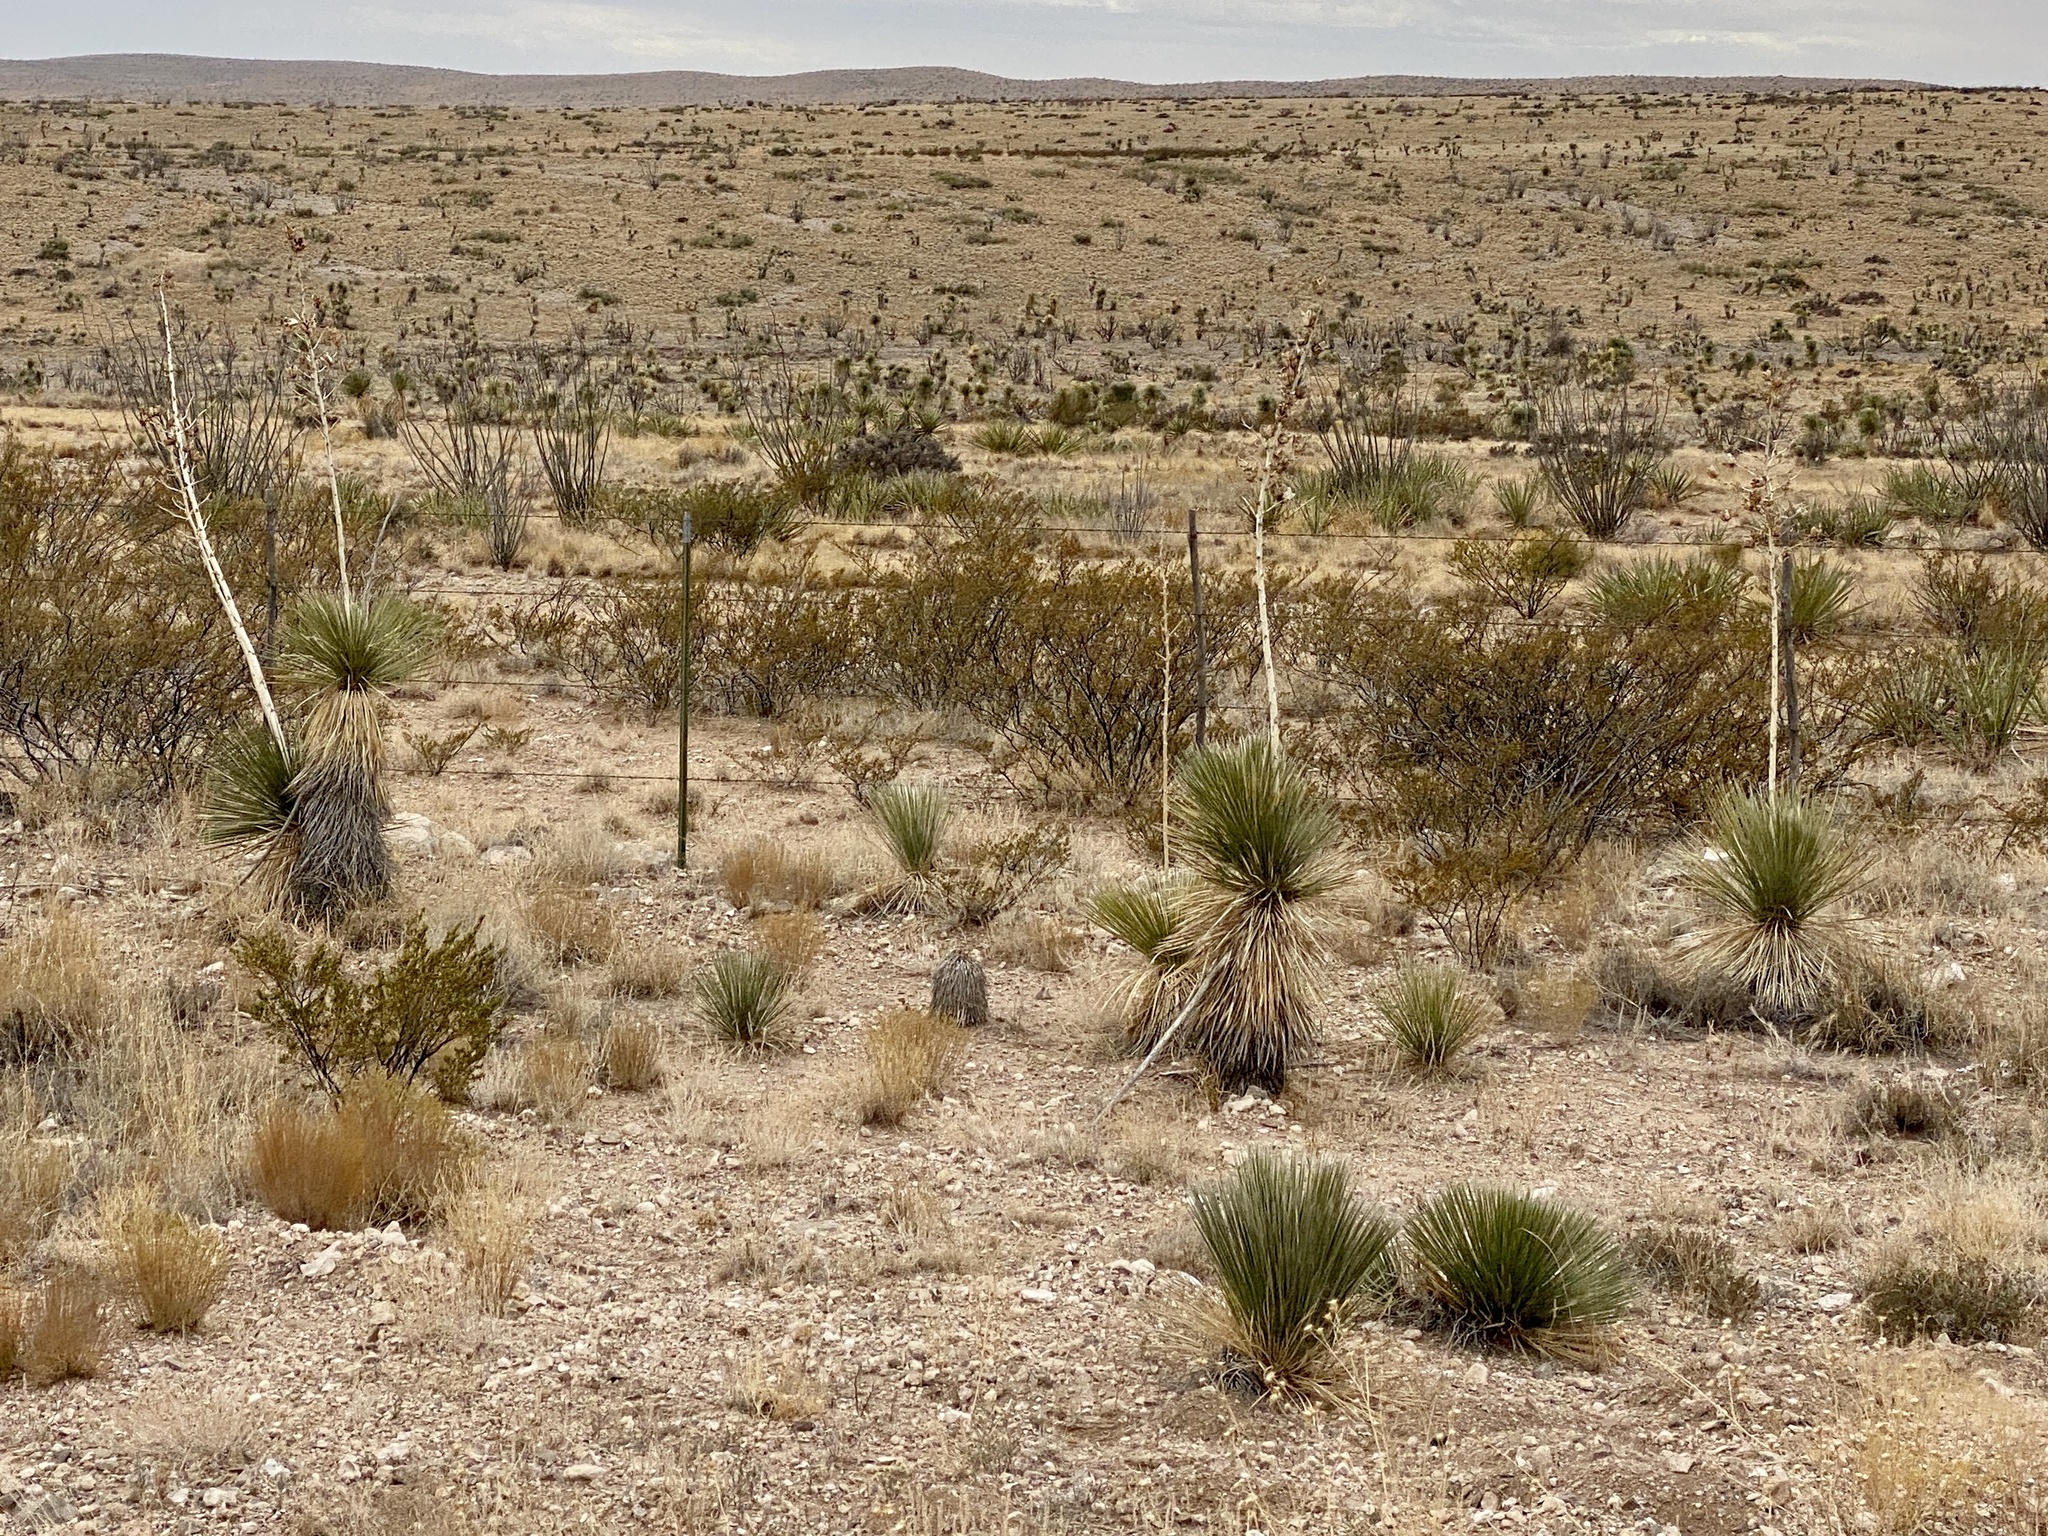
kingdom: Plantae
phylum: Tracheophyta
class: Liliopsida
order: Asparagales
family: Asparagaceae
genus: Yucca
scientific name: Yucca elata
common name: Palmella
